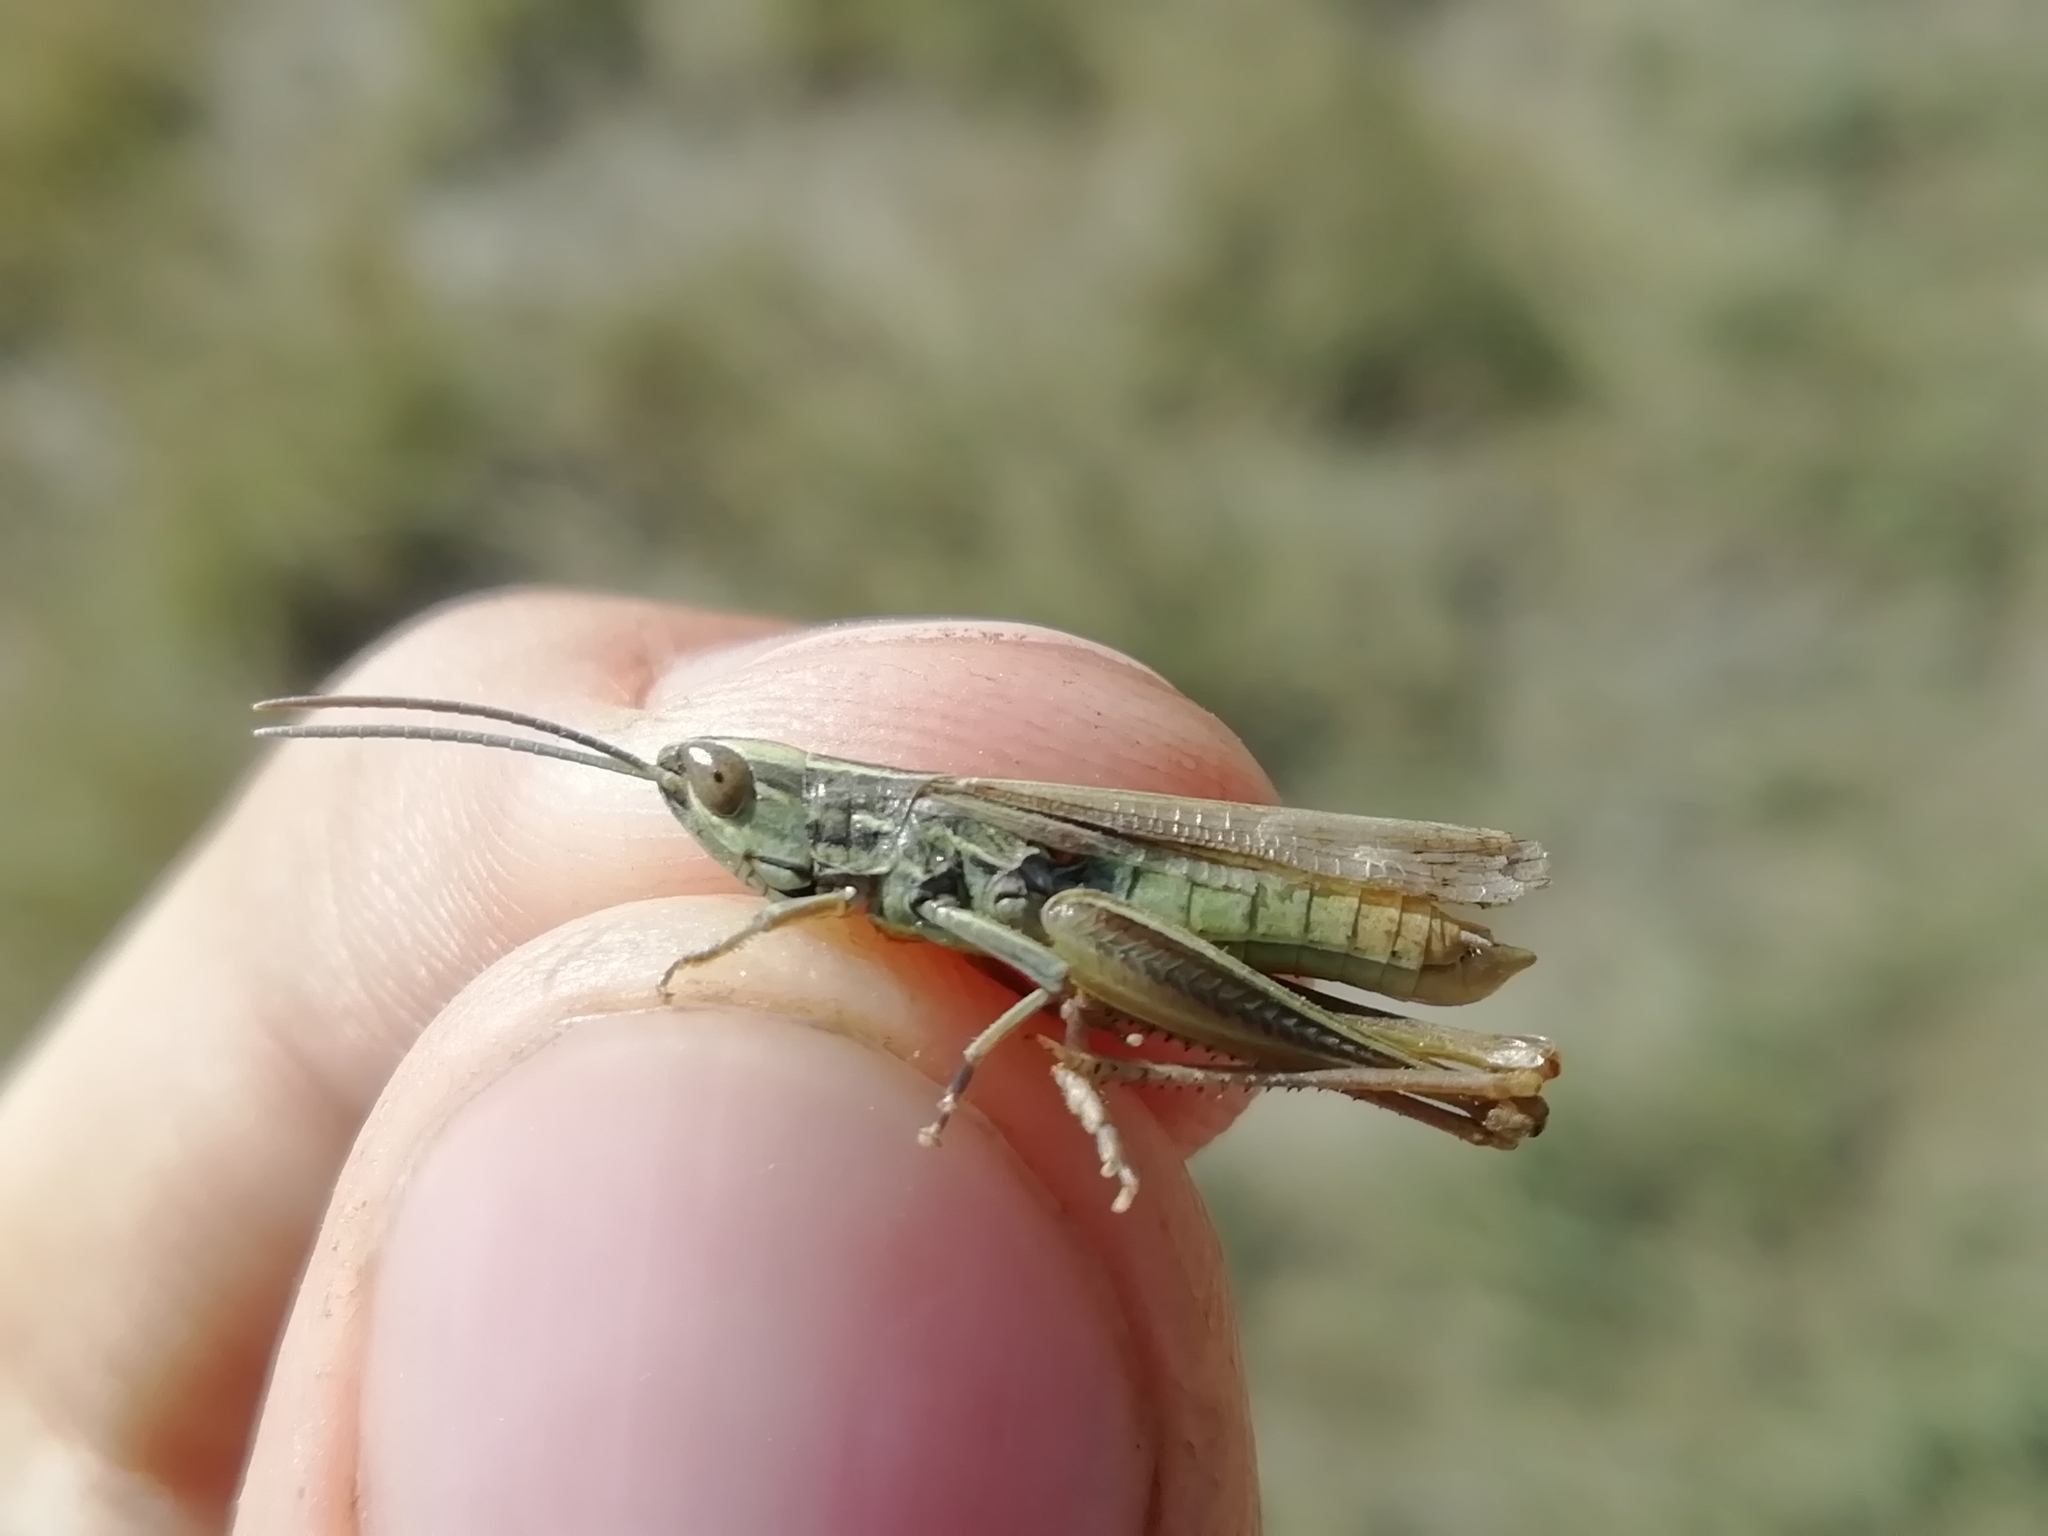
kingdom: Animalia
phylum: Arthropoda
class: Insecta
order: Orthoptera
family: Acrididae
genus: Euchorthippus
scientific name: Euchorthippus pulvinatus
